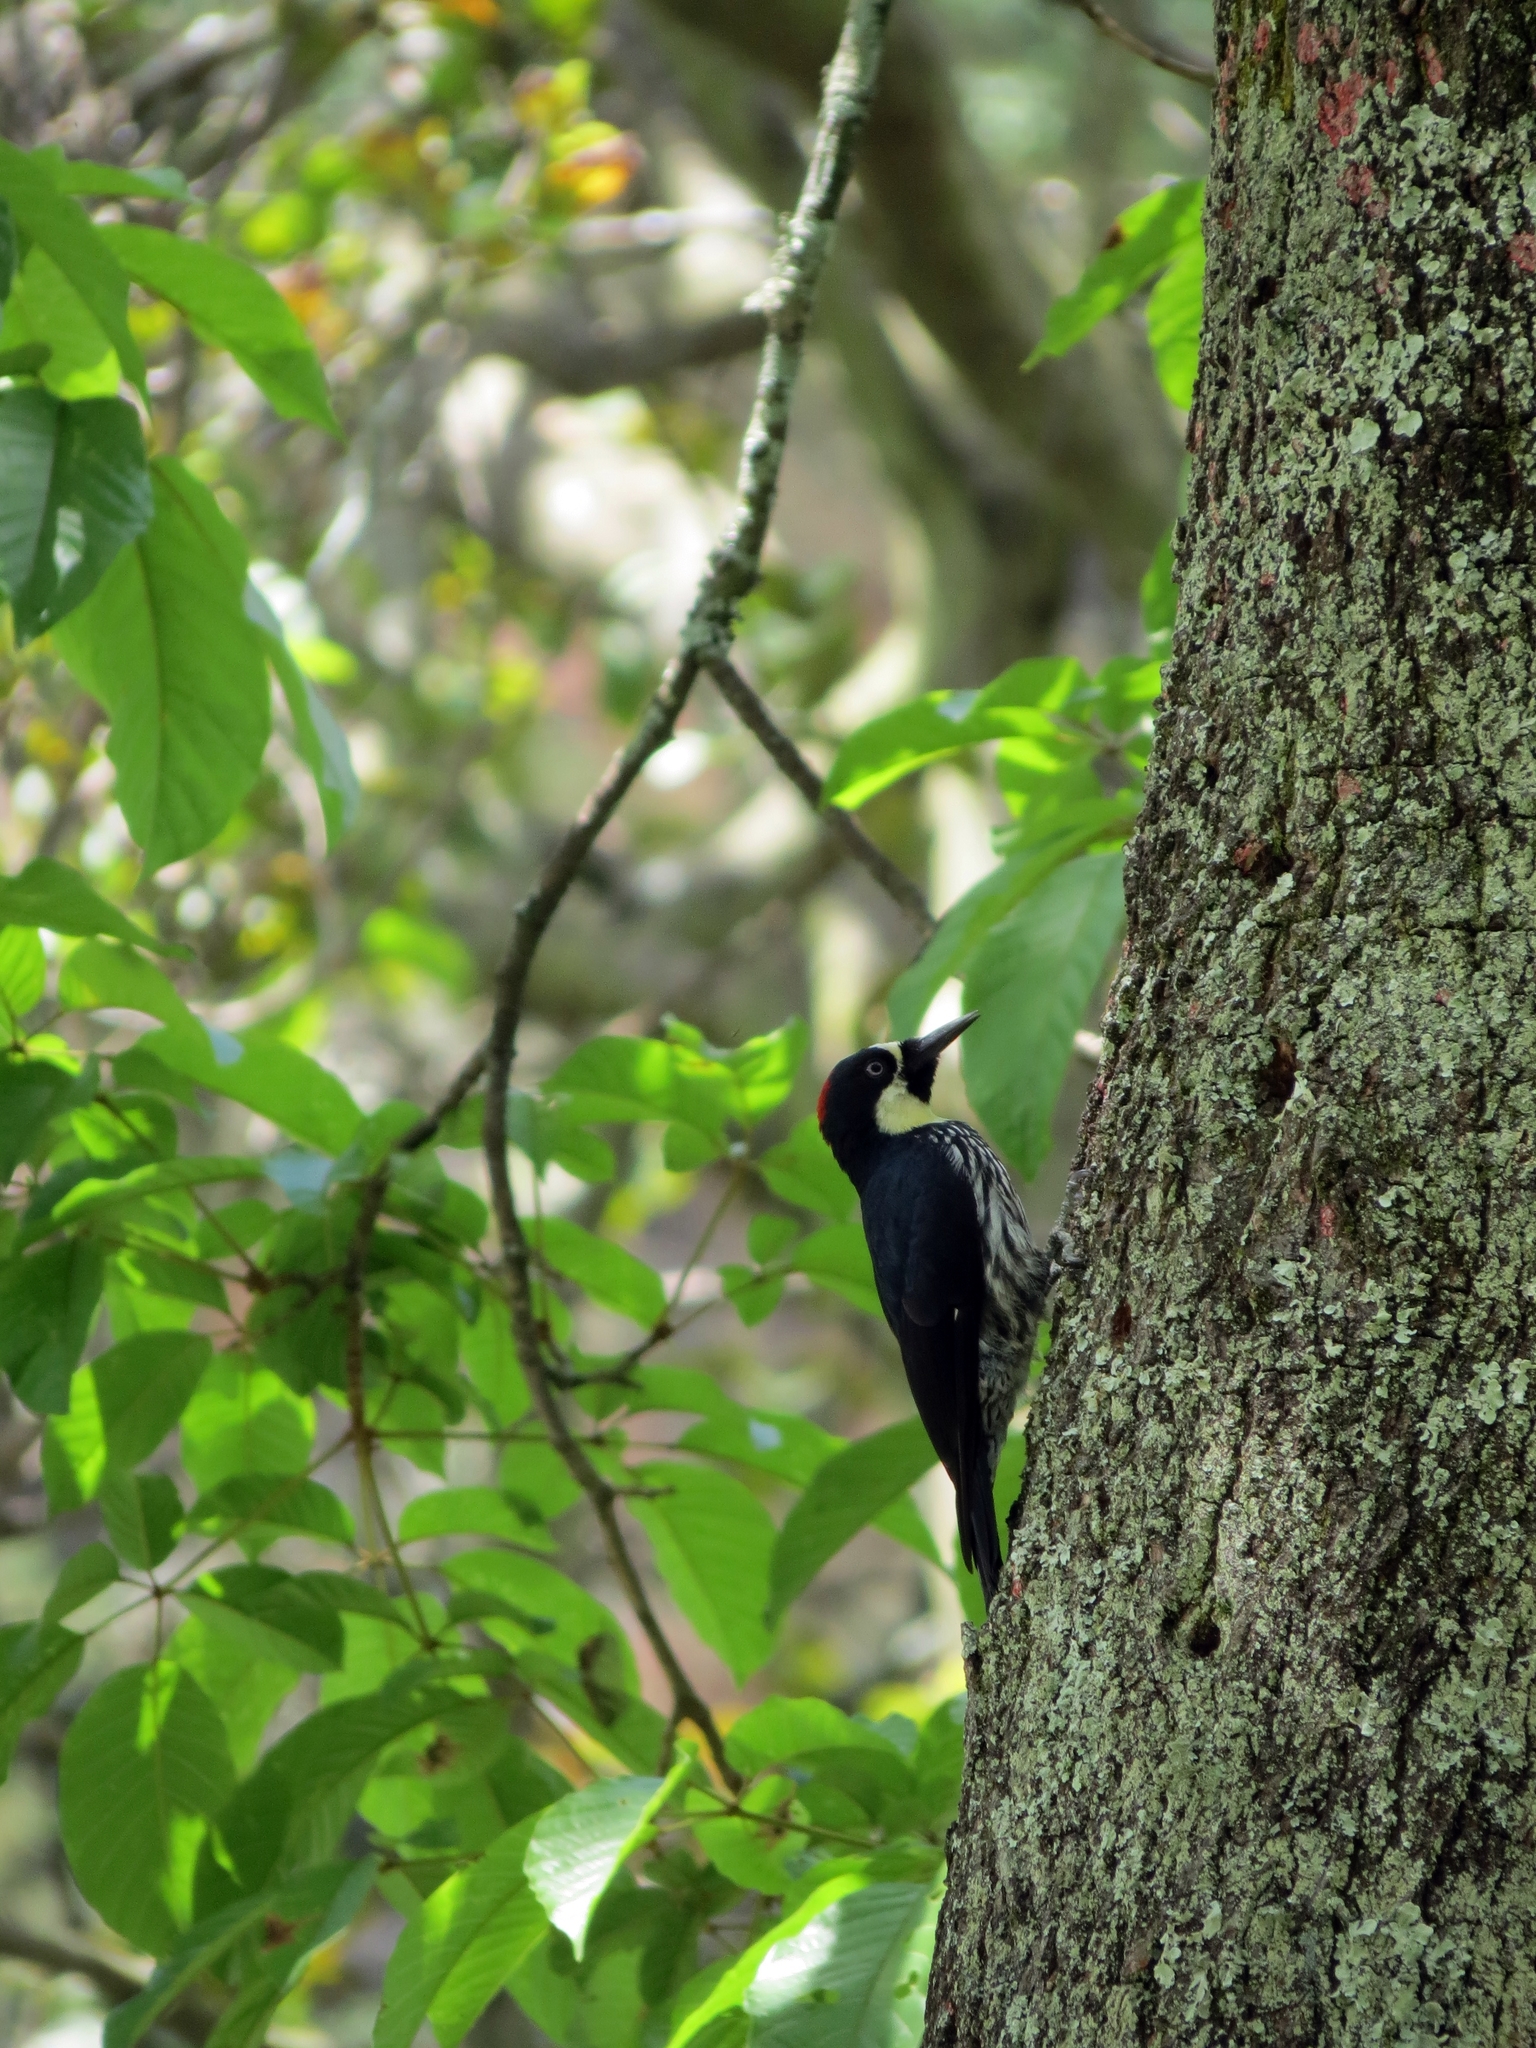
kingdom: Animalia
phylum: Chordata
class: Aves
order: Piciformes
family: Picidae
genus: Melanerpes
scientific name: Melanerpes formicivorus
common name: Acorn woodpecker
